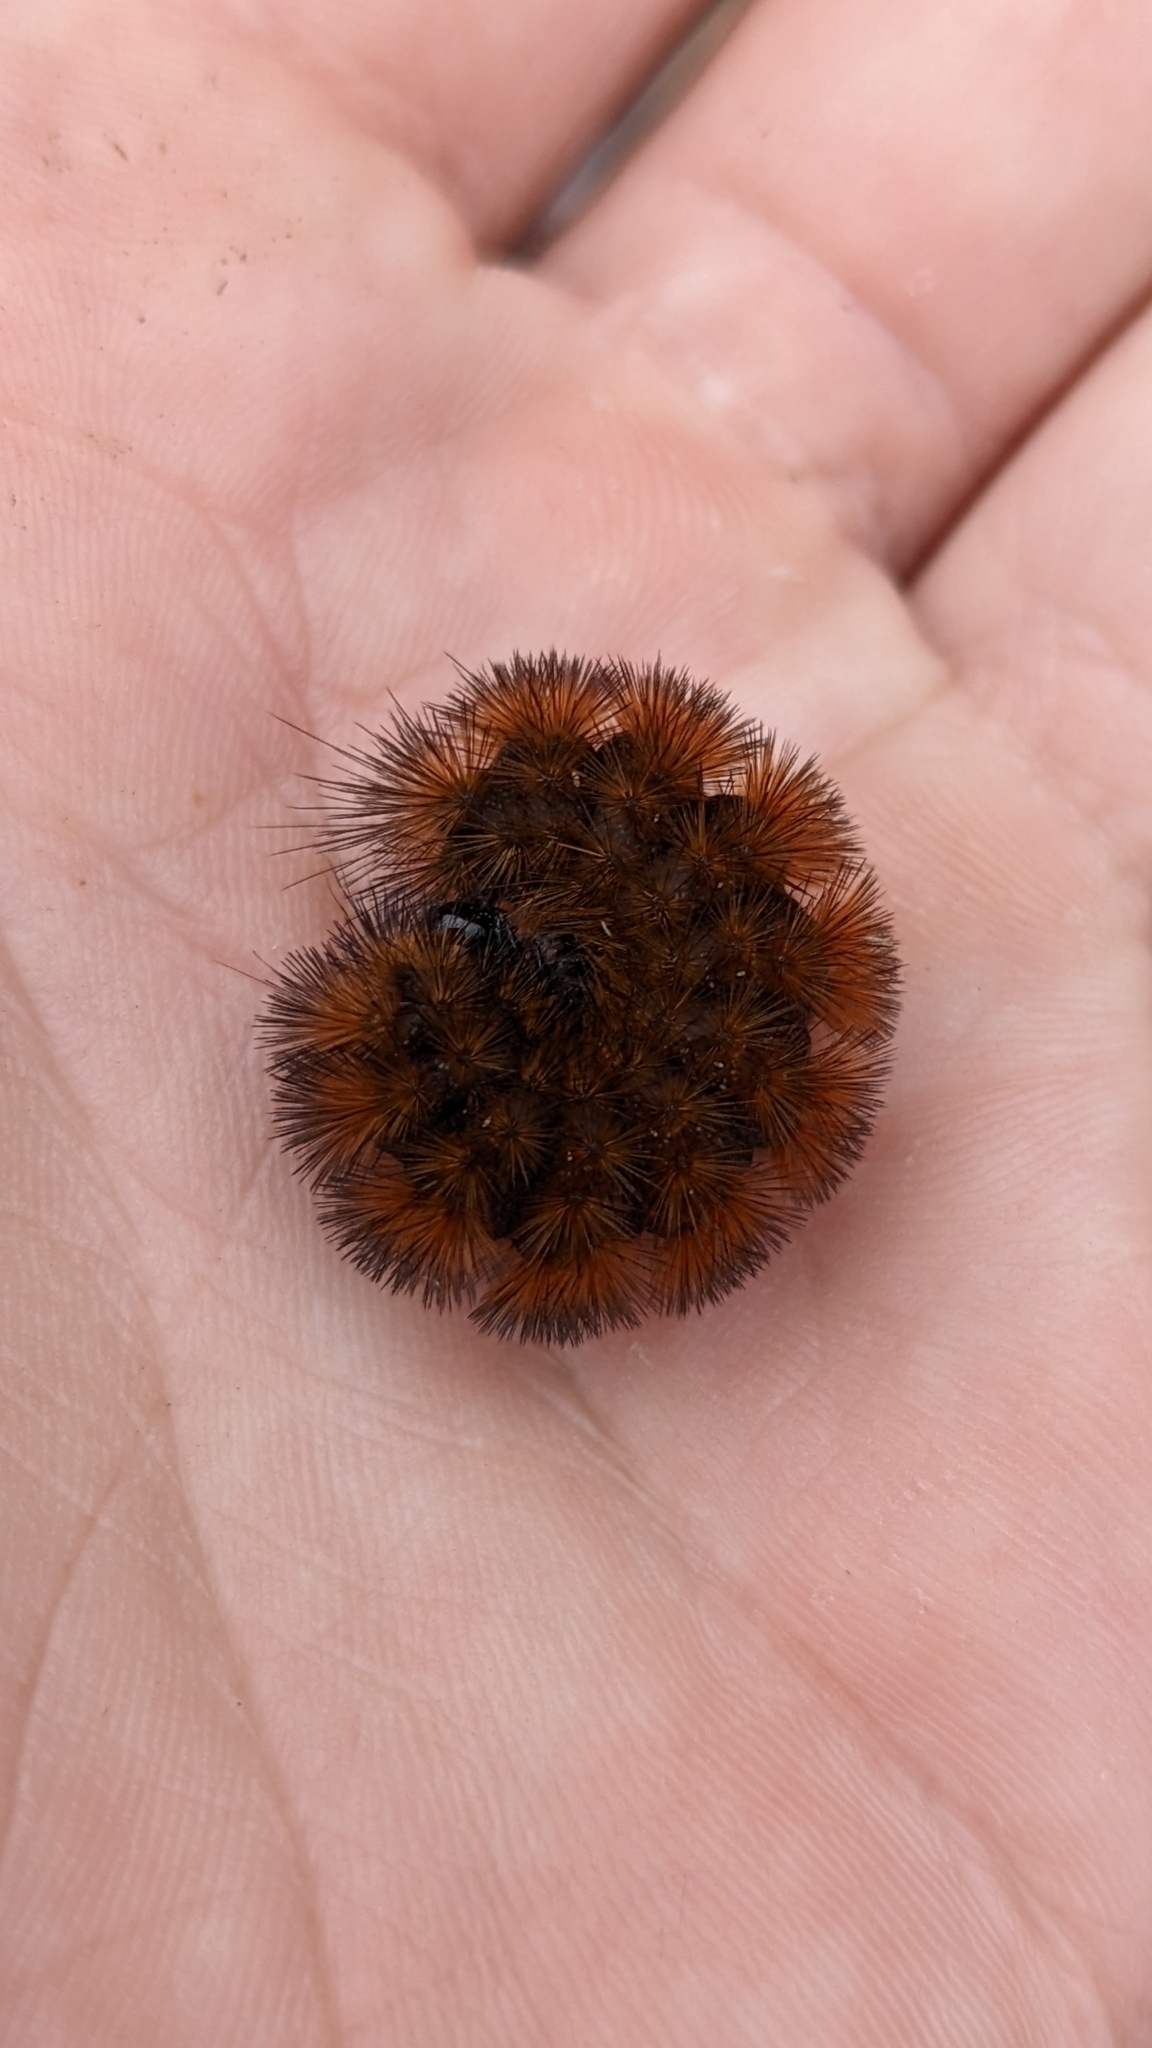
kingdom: Animalia
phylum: Arthropoda
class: Insecta
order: Lepidoptera
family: Erebidae
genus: Pyrrharctia
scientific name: Pyrrharctia isabella
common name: Isabella tiger moth
